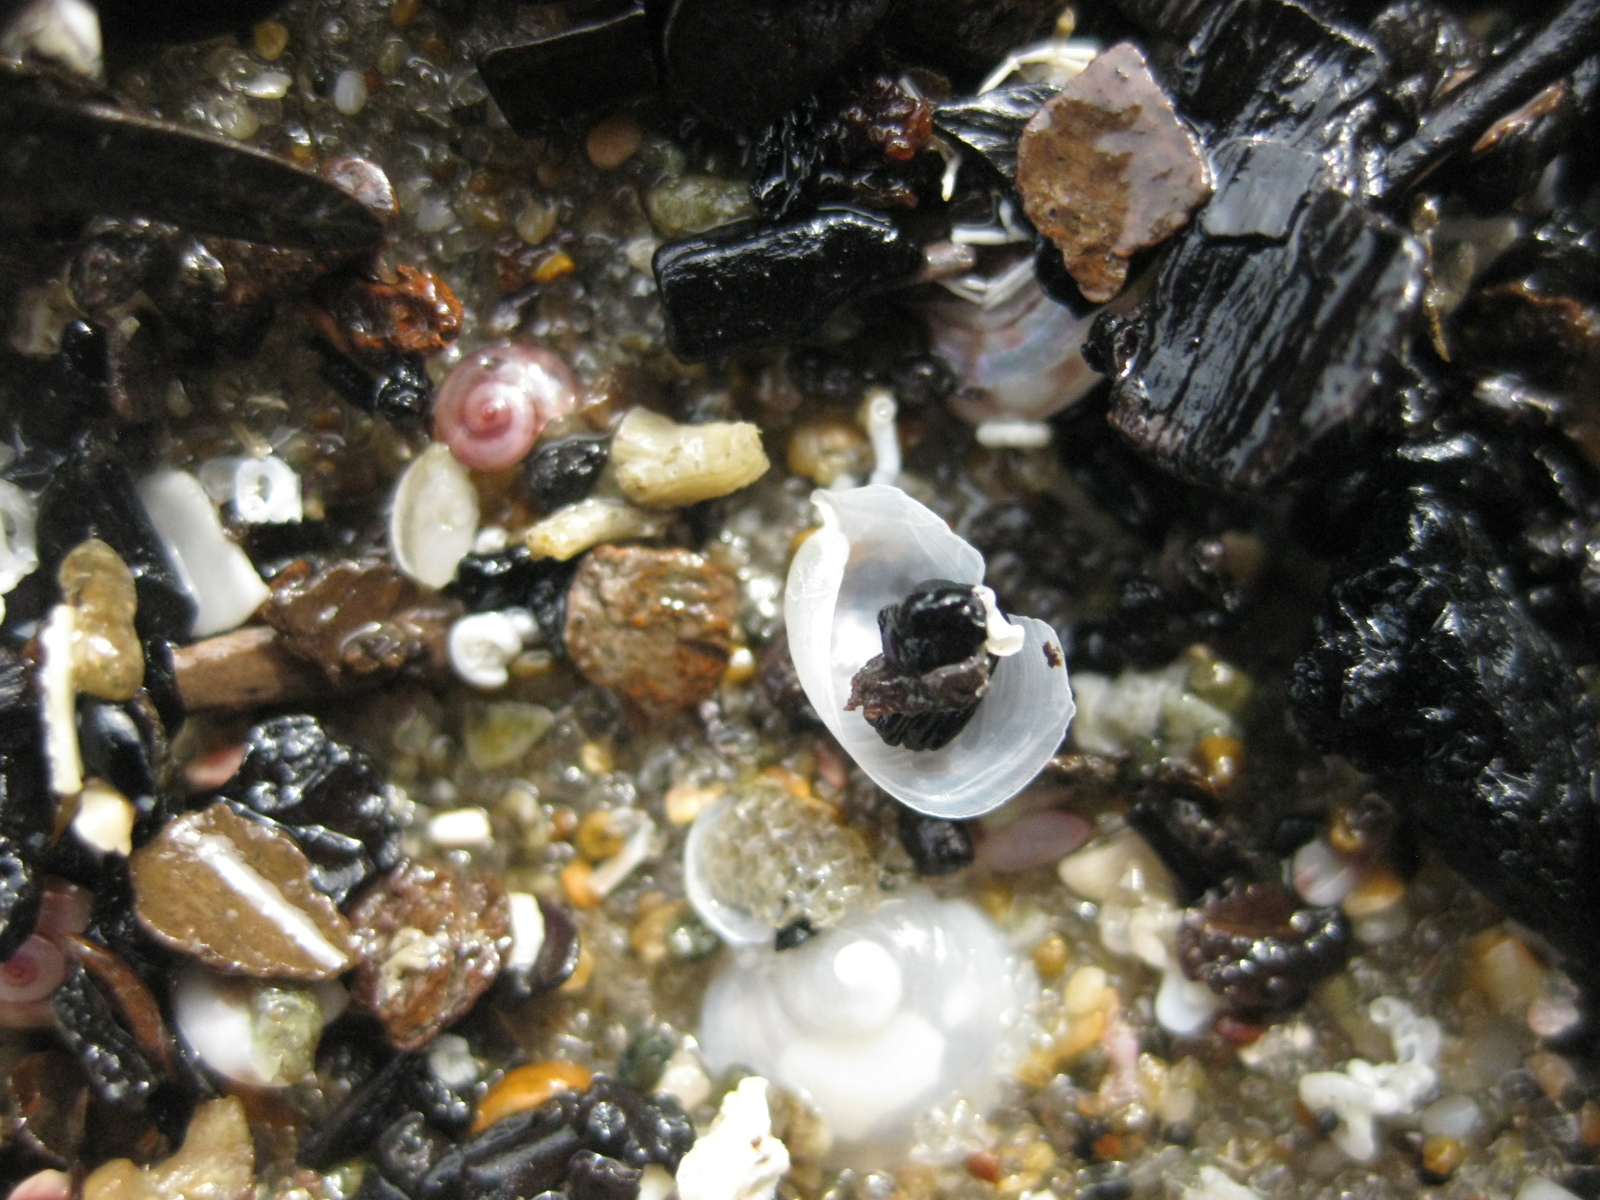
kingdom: Animalia
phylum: Mollusca
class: Gastropoda
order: Cephalaspidea
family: Philinidae
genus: Philine
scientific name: Philine powelli
